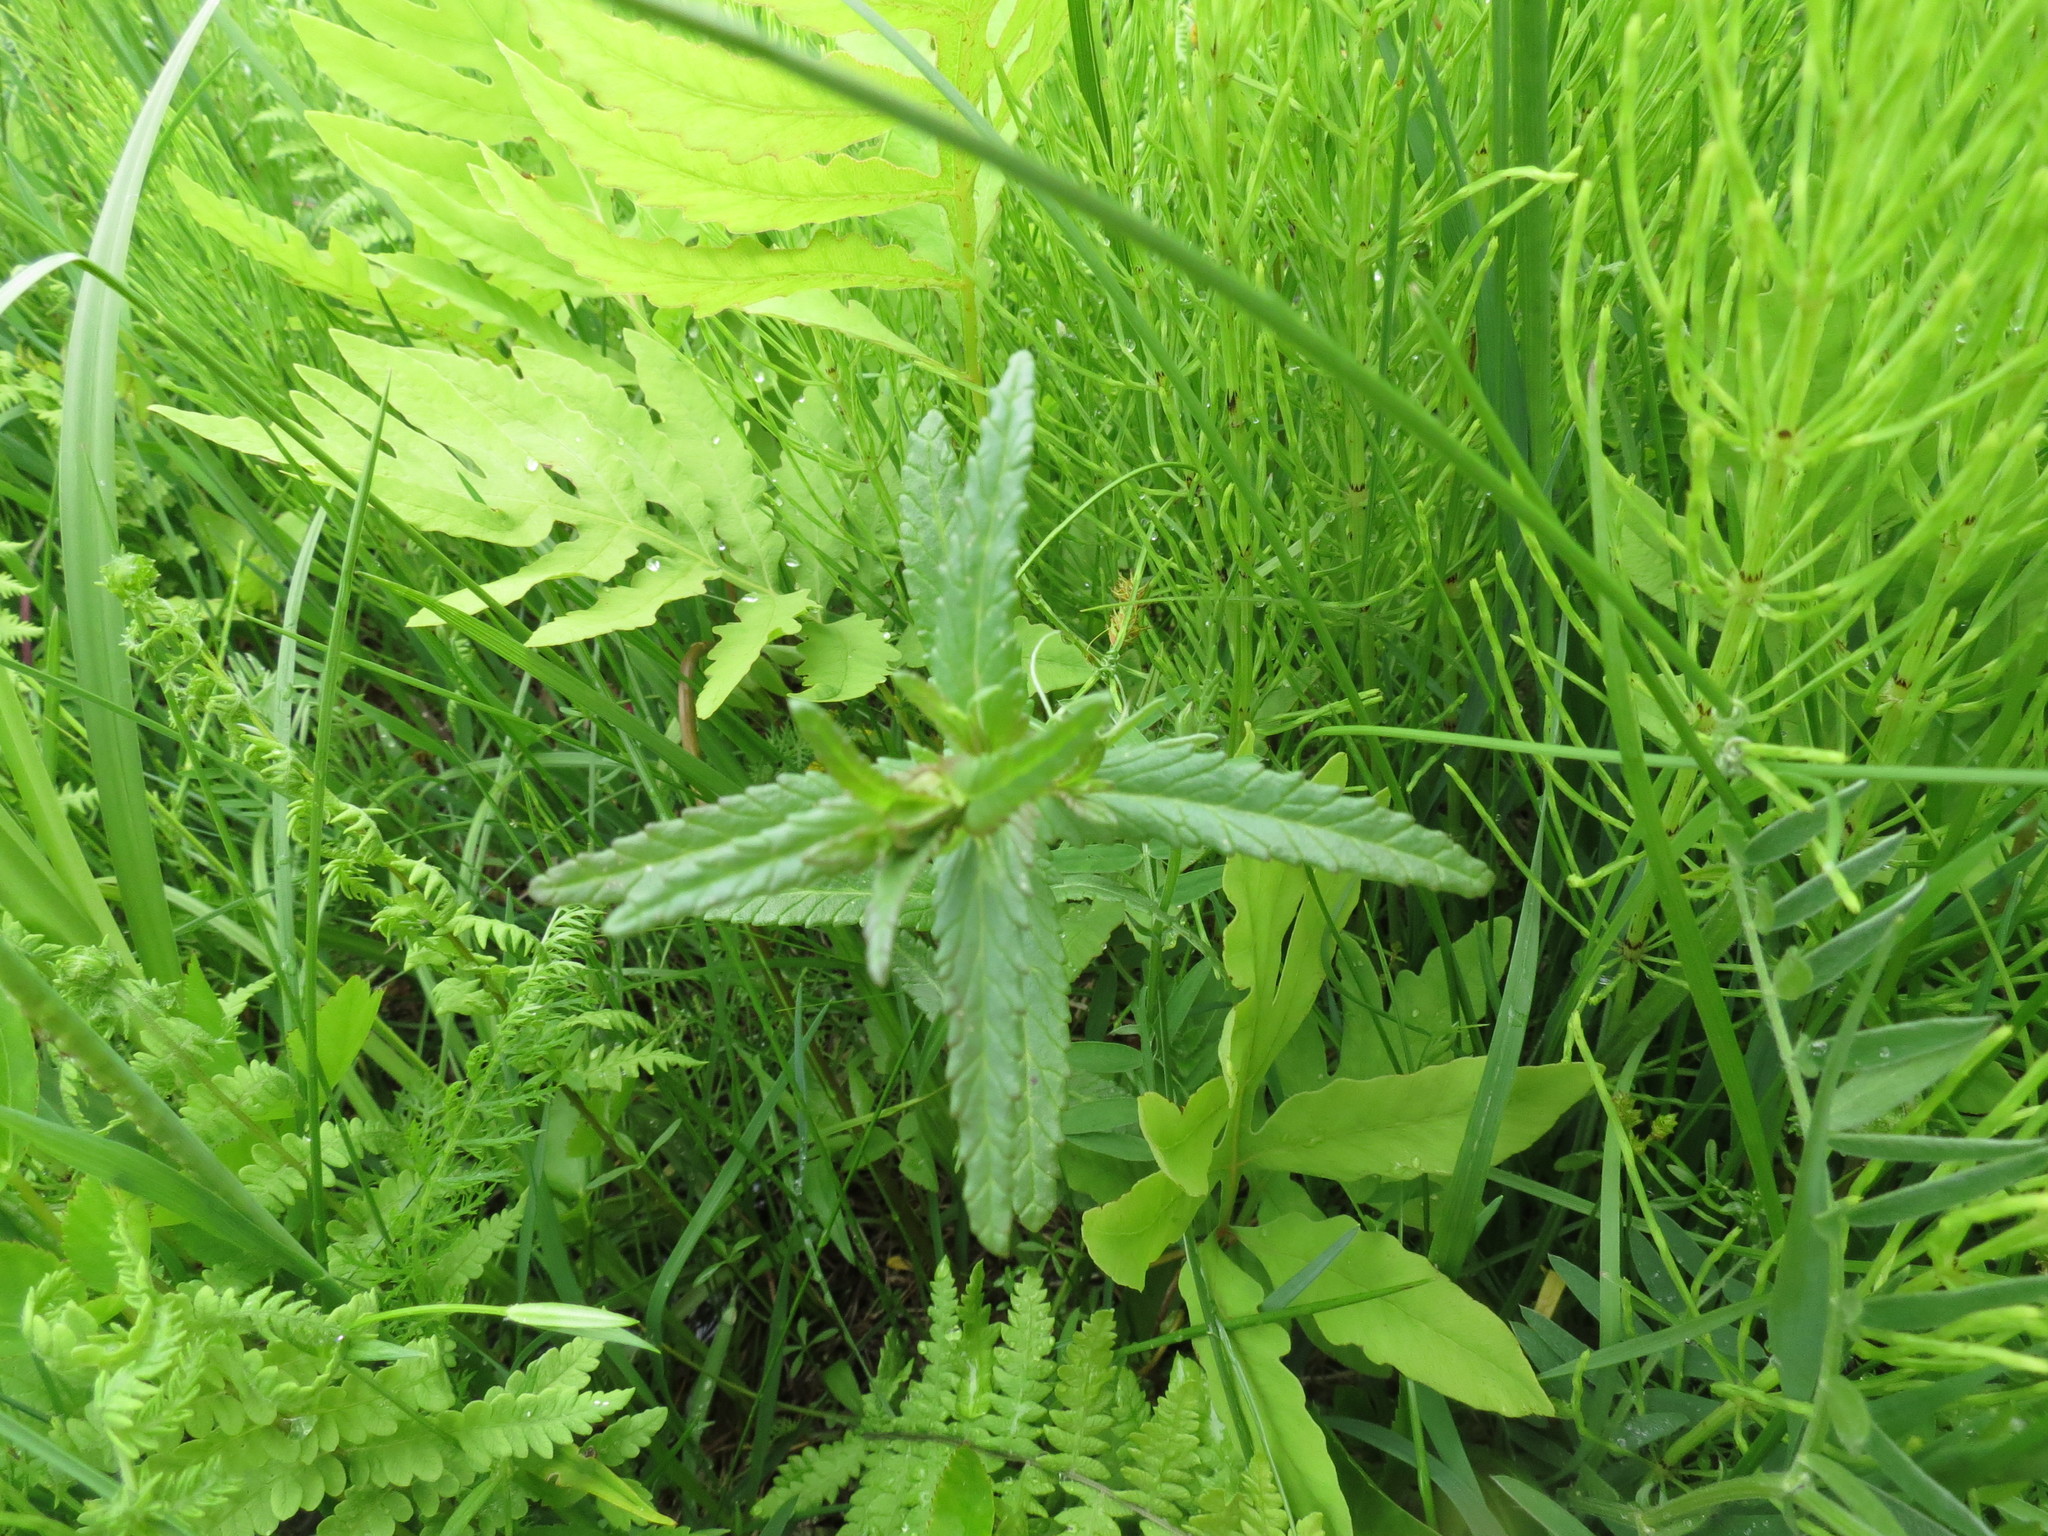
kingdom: Plantae
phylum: Tracheophyta
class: Magnoliopsida
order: Lamiales
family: Orobanchaceae
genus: Rhinanthus
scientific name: Rhinanthus minor
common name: Yellow-rattle
